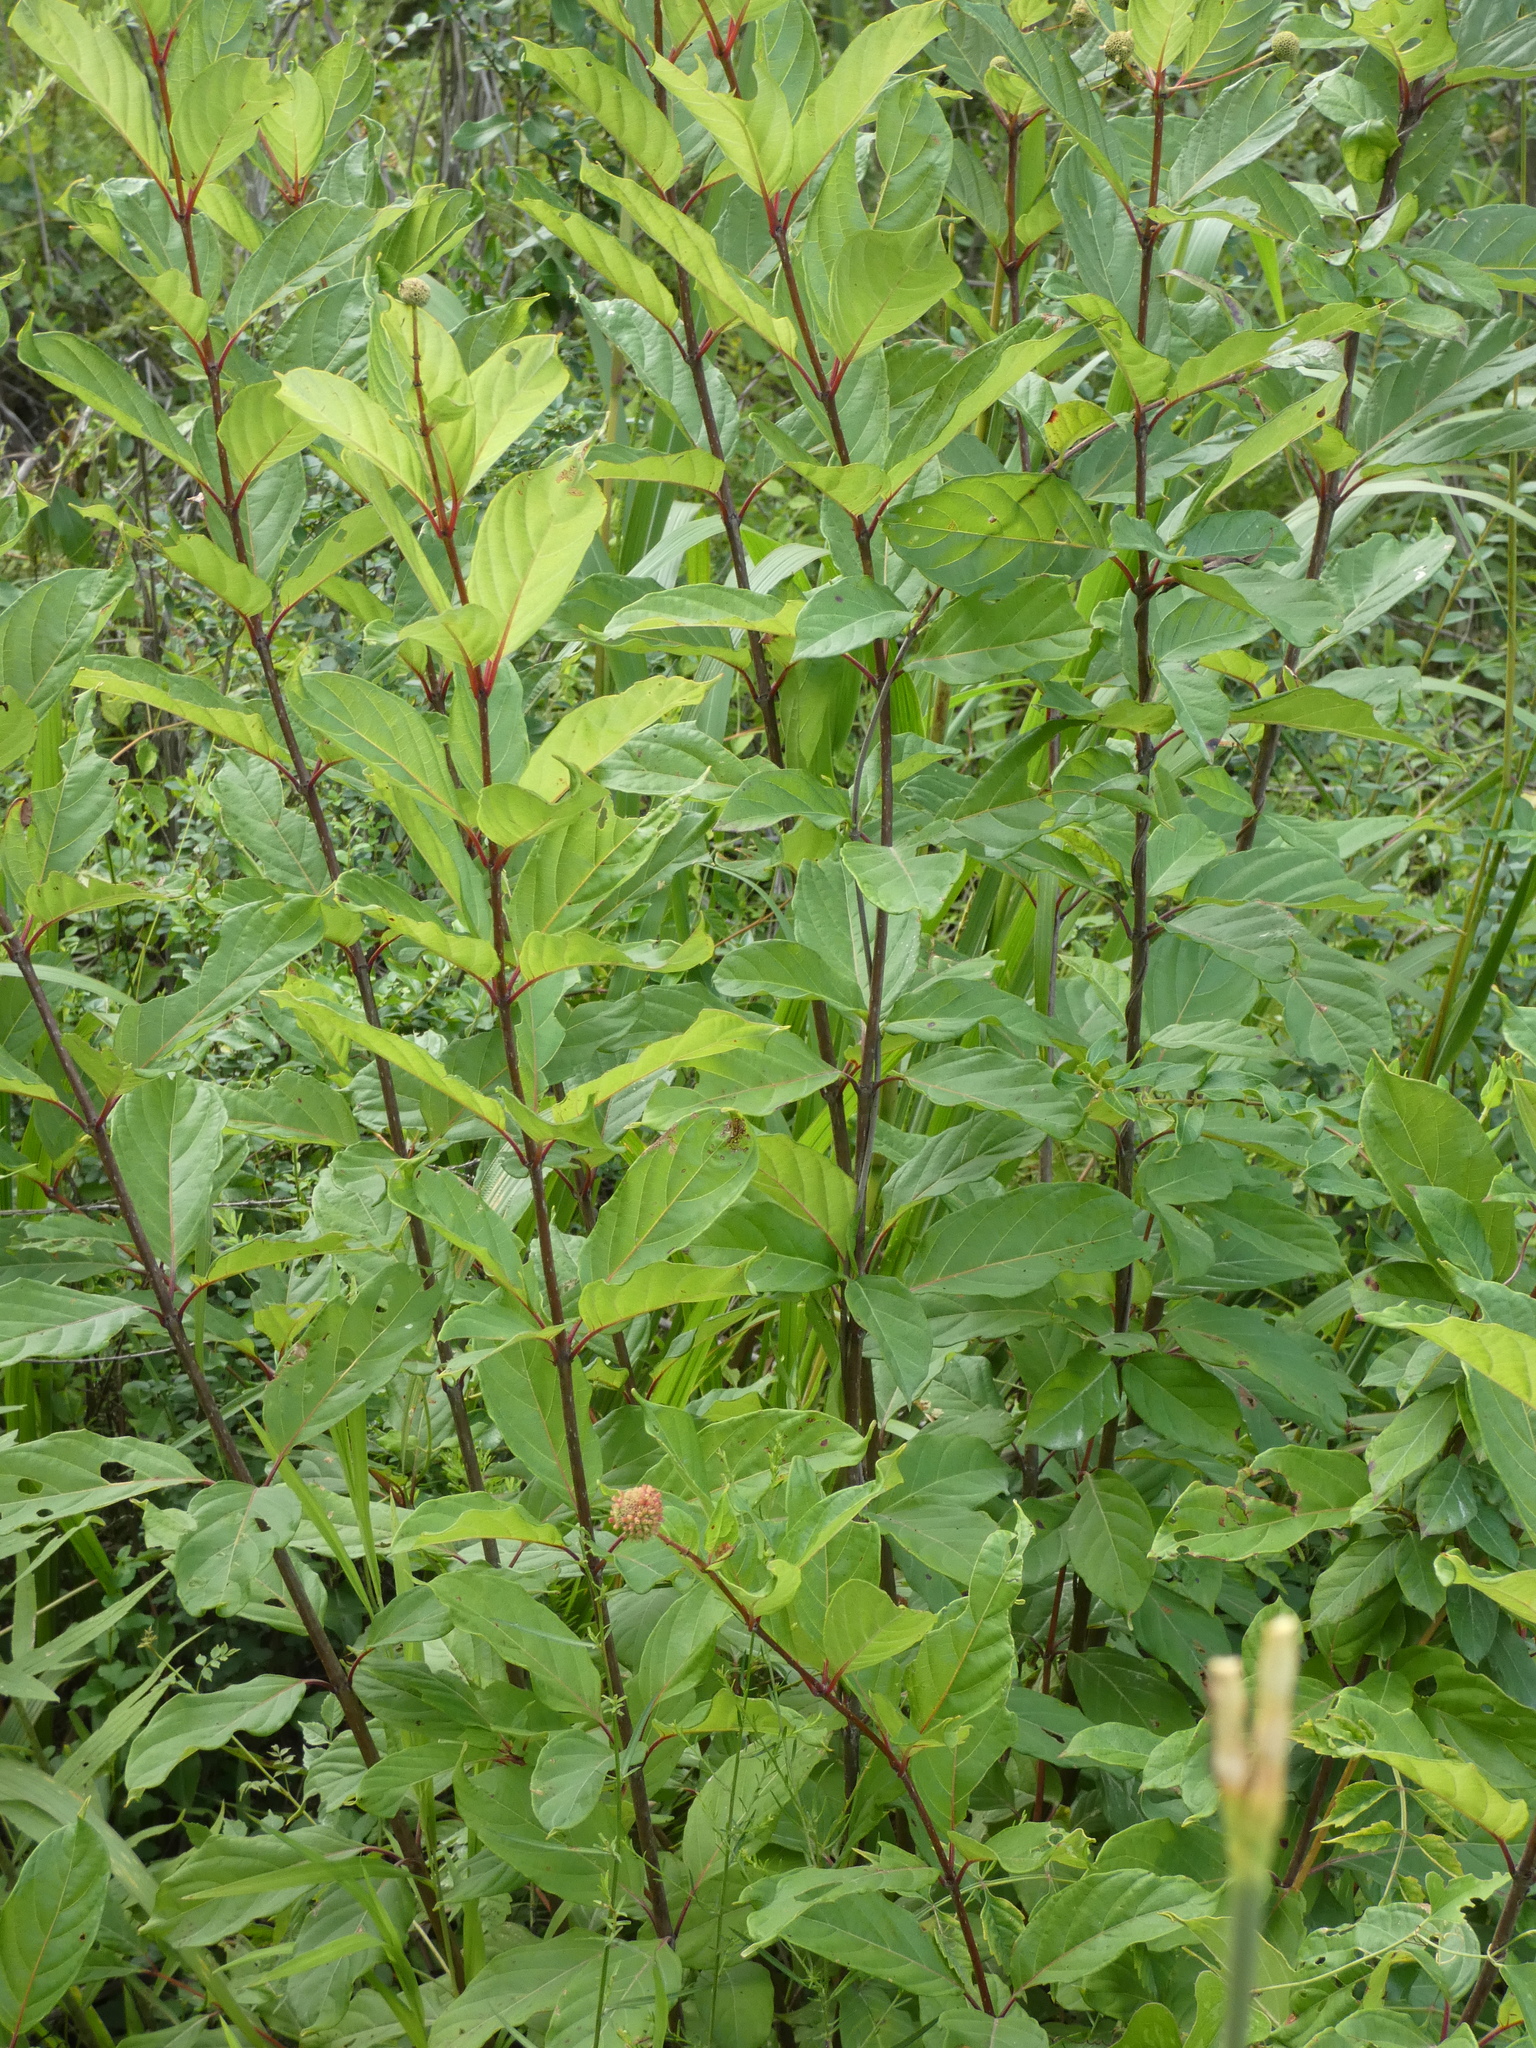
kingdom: Plantae
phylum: Tracheophyta
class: Magnoliopsida
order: Gentianales
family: Rubiaceae
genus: Cephalanthus
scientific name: Cephalanthus occidentalis
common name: Button-willow
